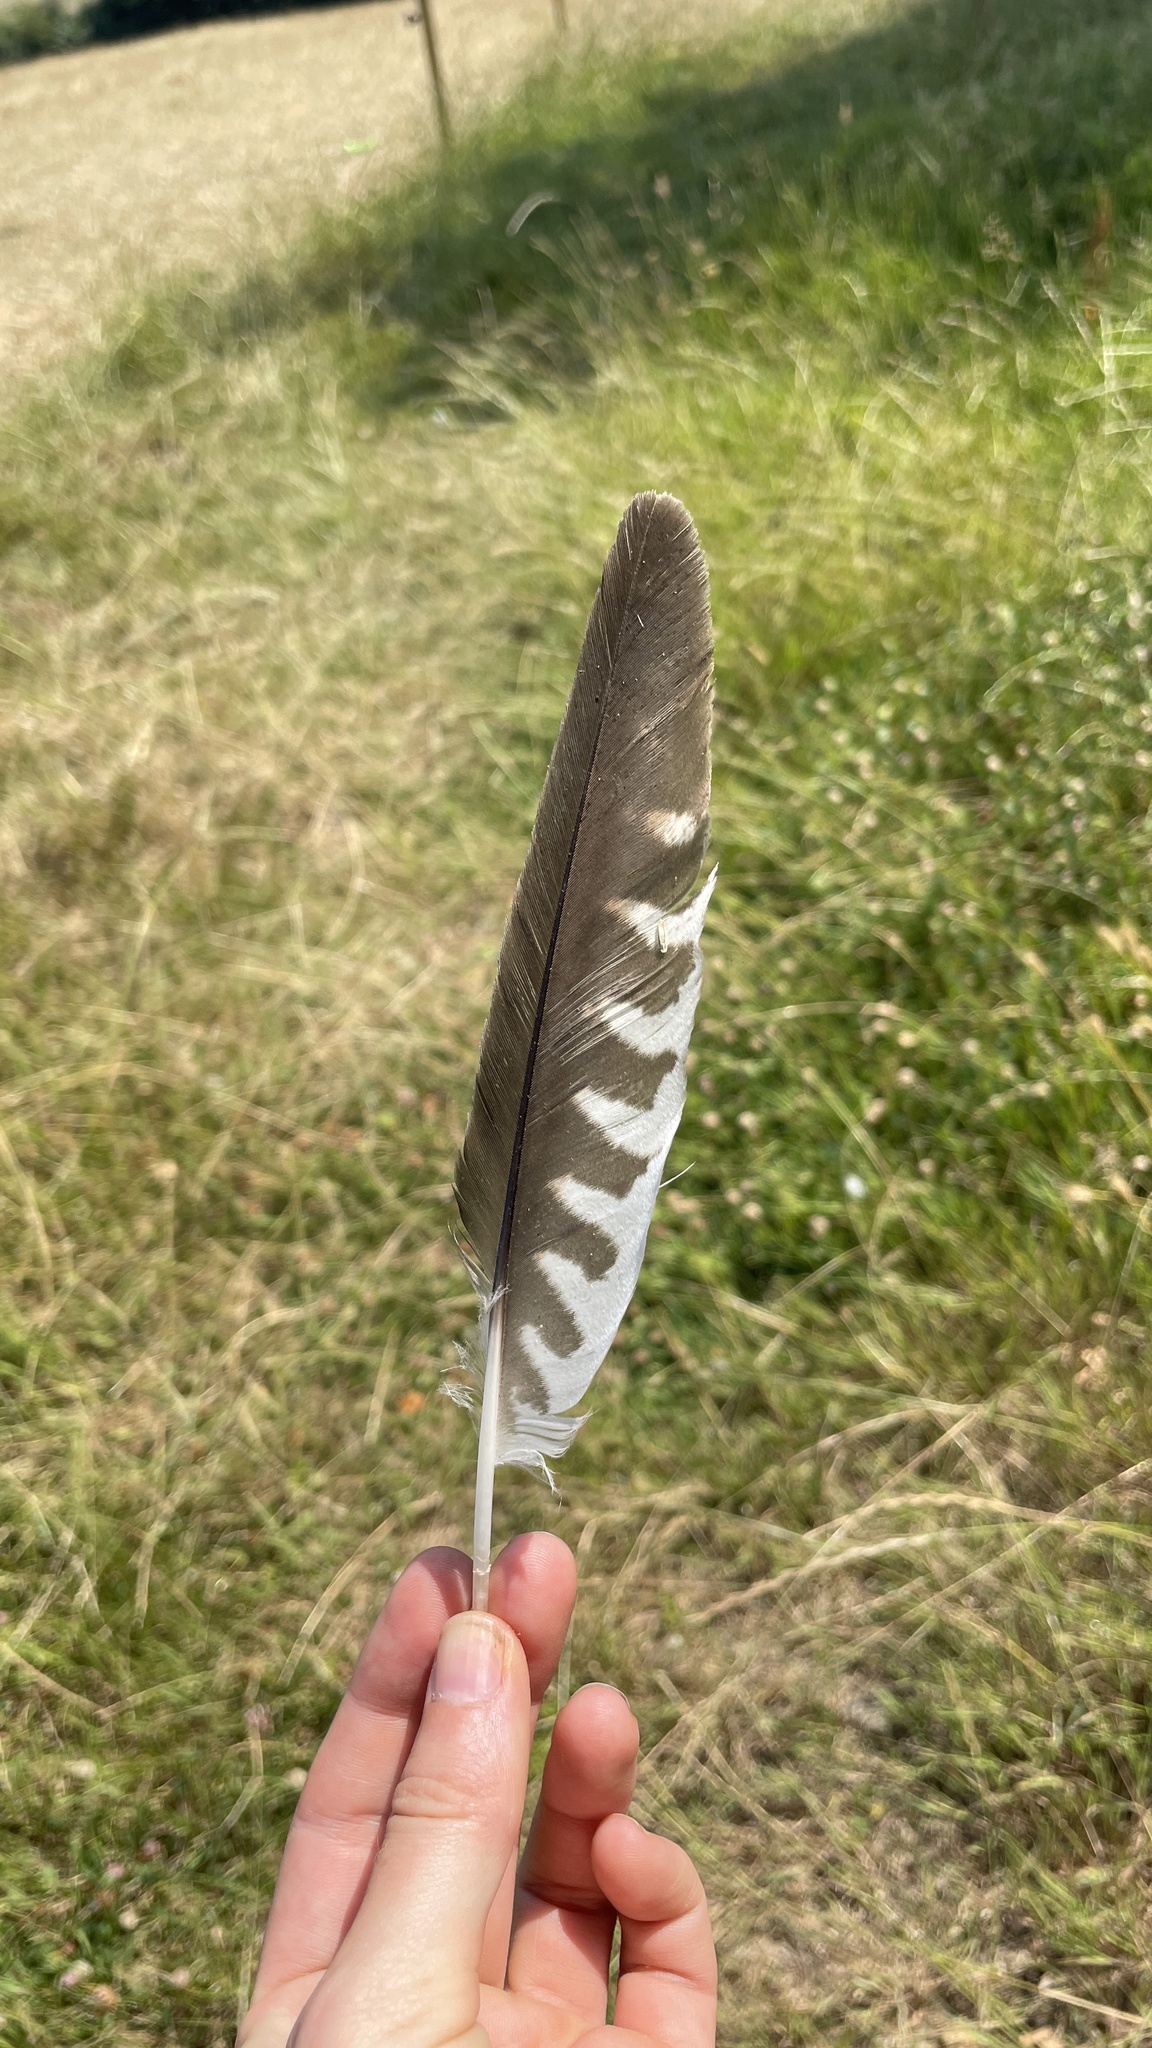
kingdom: Animalia
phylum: Chordata
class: Aves
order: Falconiformes
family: Falconidae
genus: Falco
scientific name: Falco tinnunculus
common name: Common kestrel
